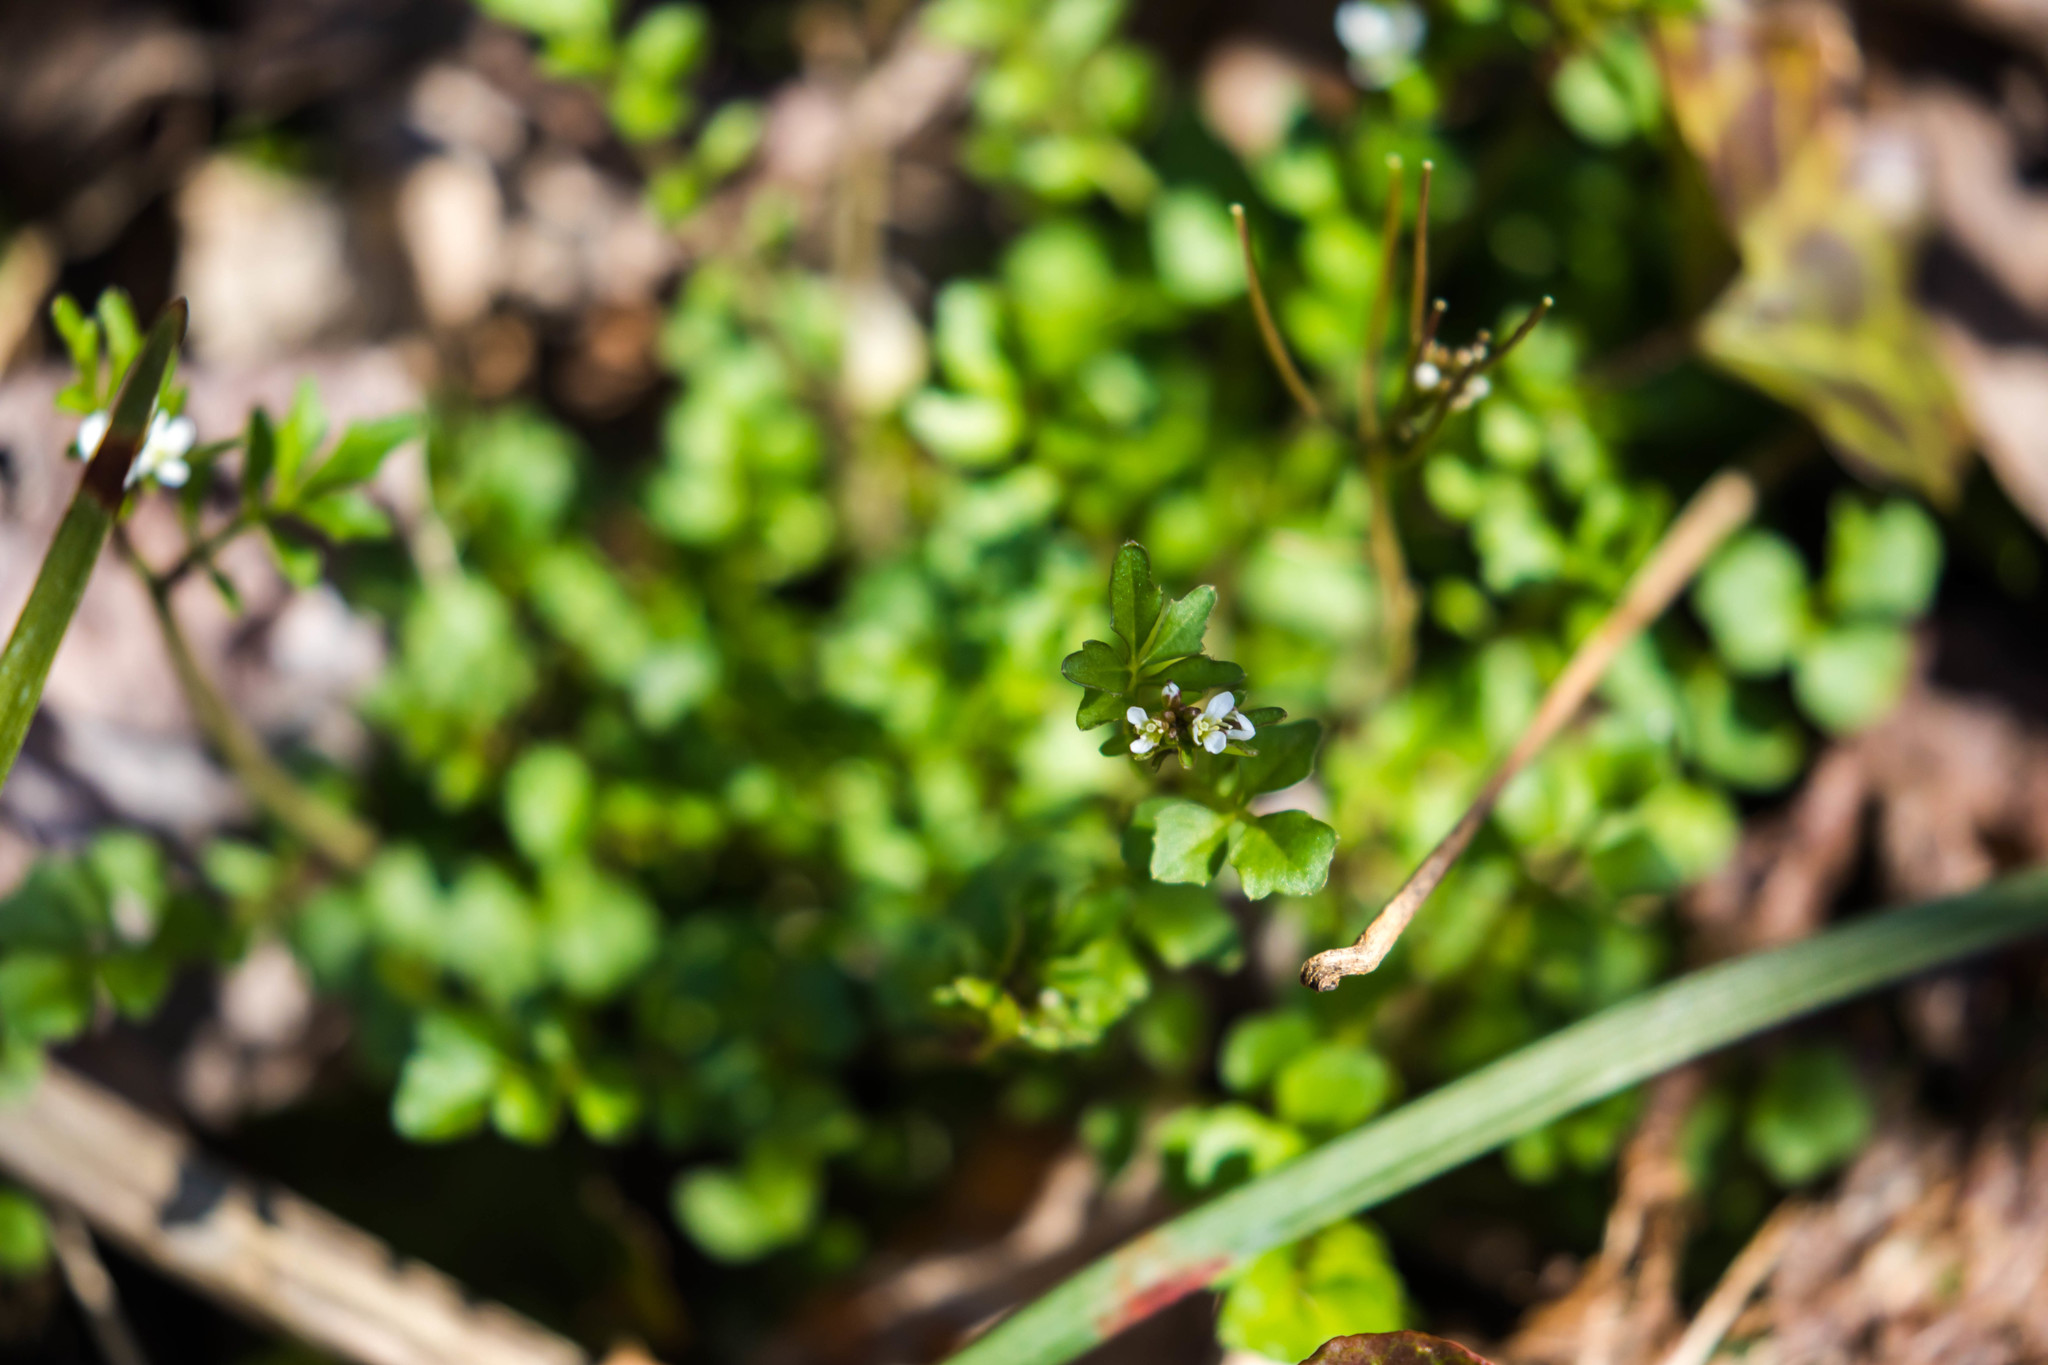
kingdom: Plantae
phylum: Tracheophyta
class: Magnoliopsida
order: Brassicales
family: Brassicaceae
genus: Cardamine
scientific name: Cardamine hirsuta
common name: Hairy bittercress
